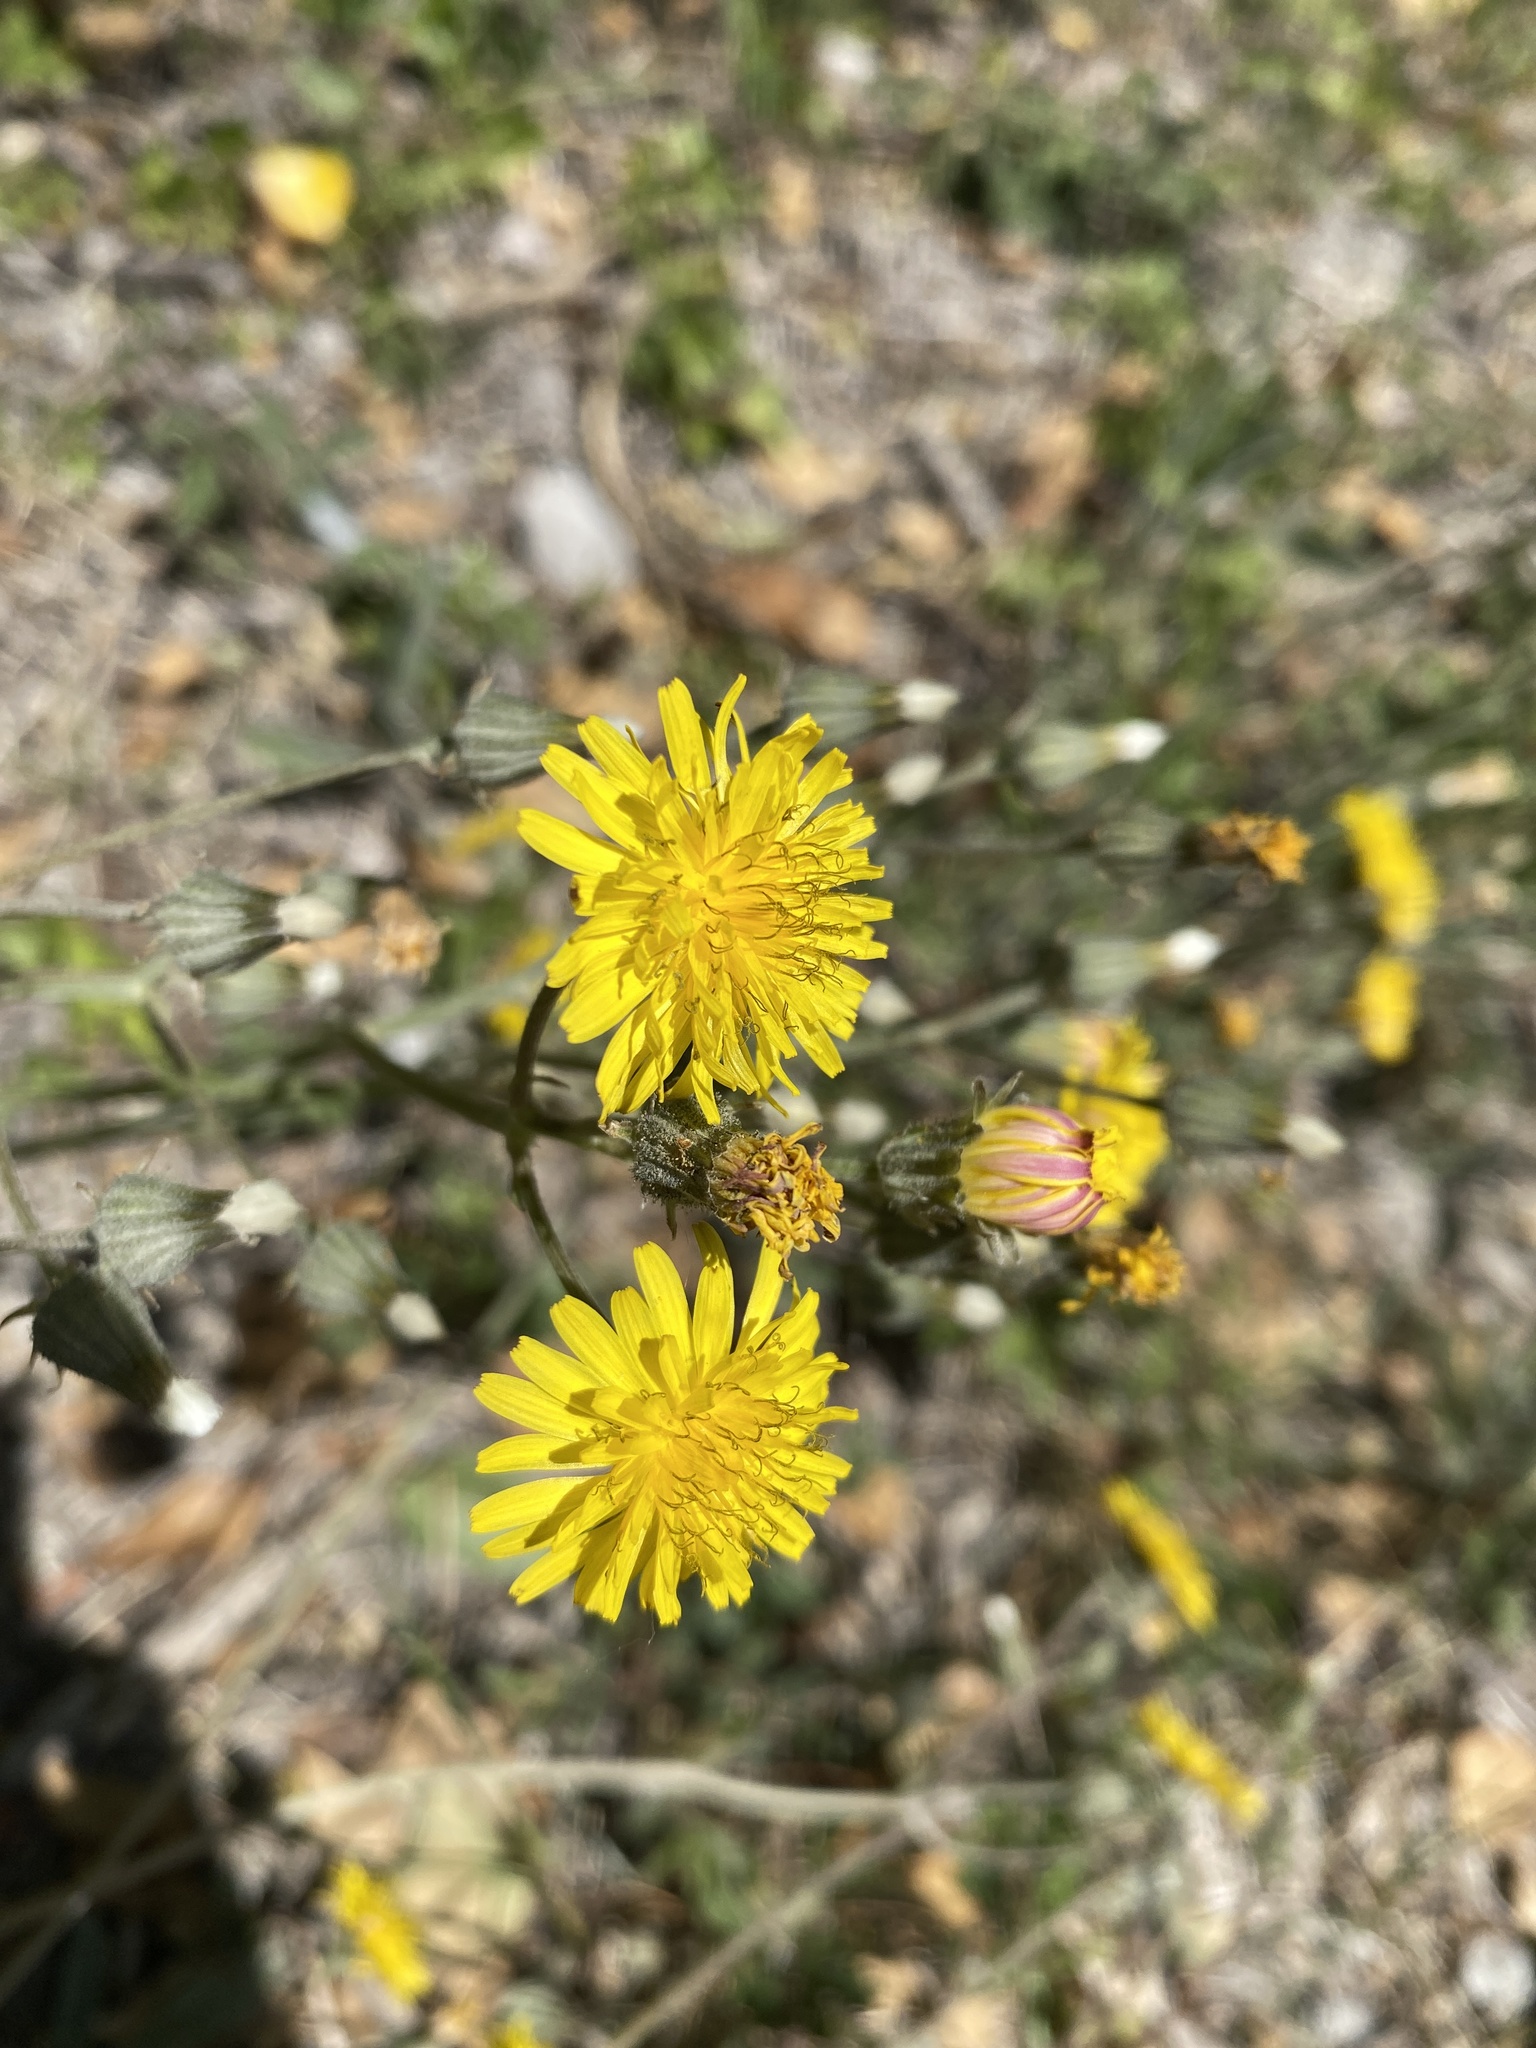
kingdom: Plantae
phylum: Tracheophyta
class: Magnoliopsida
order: Asterales
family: Asteraceae
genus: Crepis
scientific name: Crepis capillaris
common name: Smooth hawksbeard
